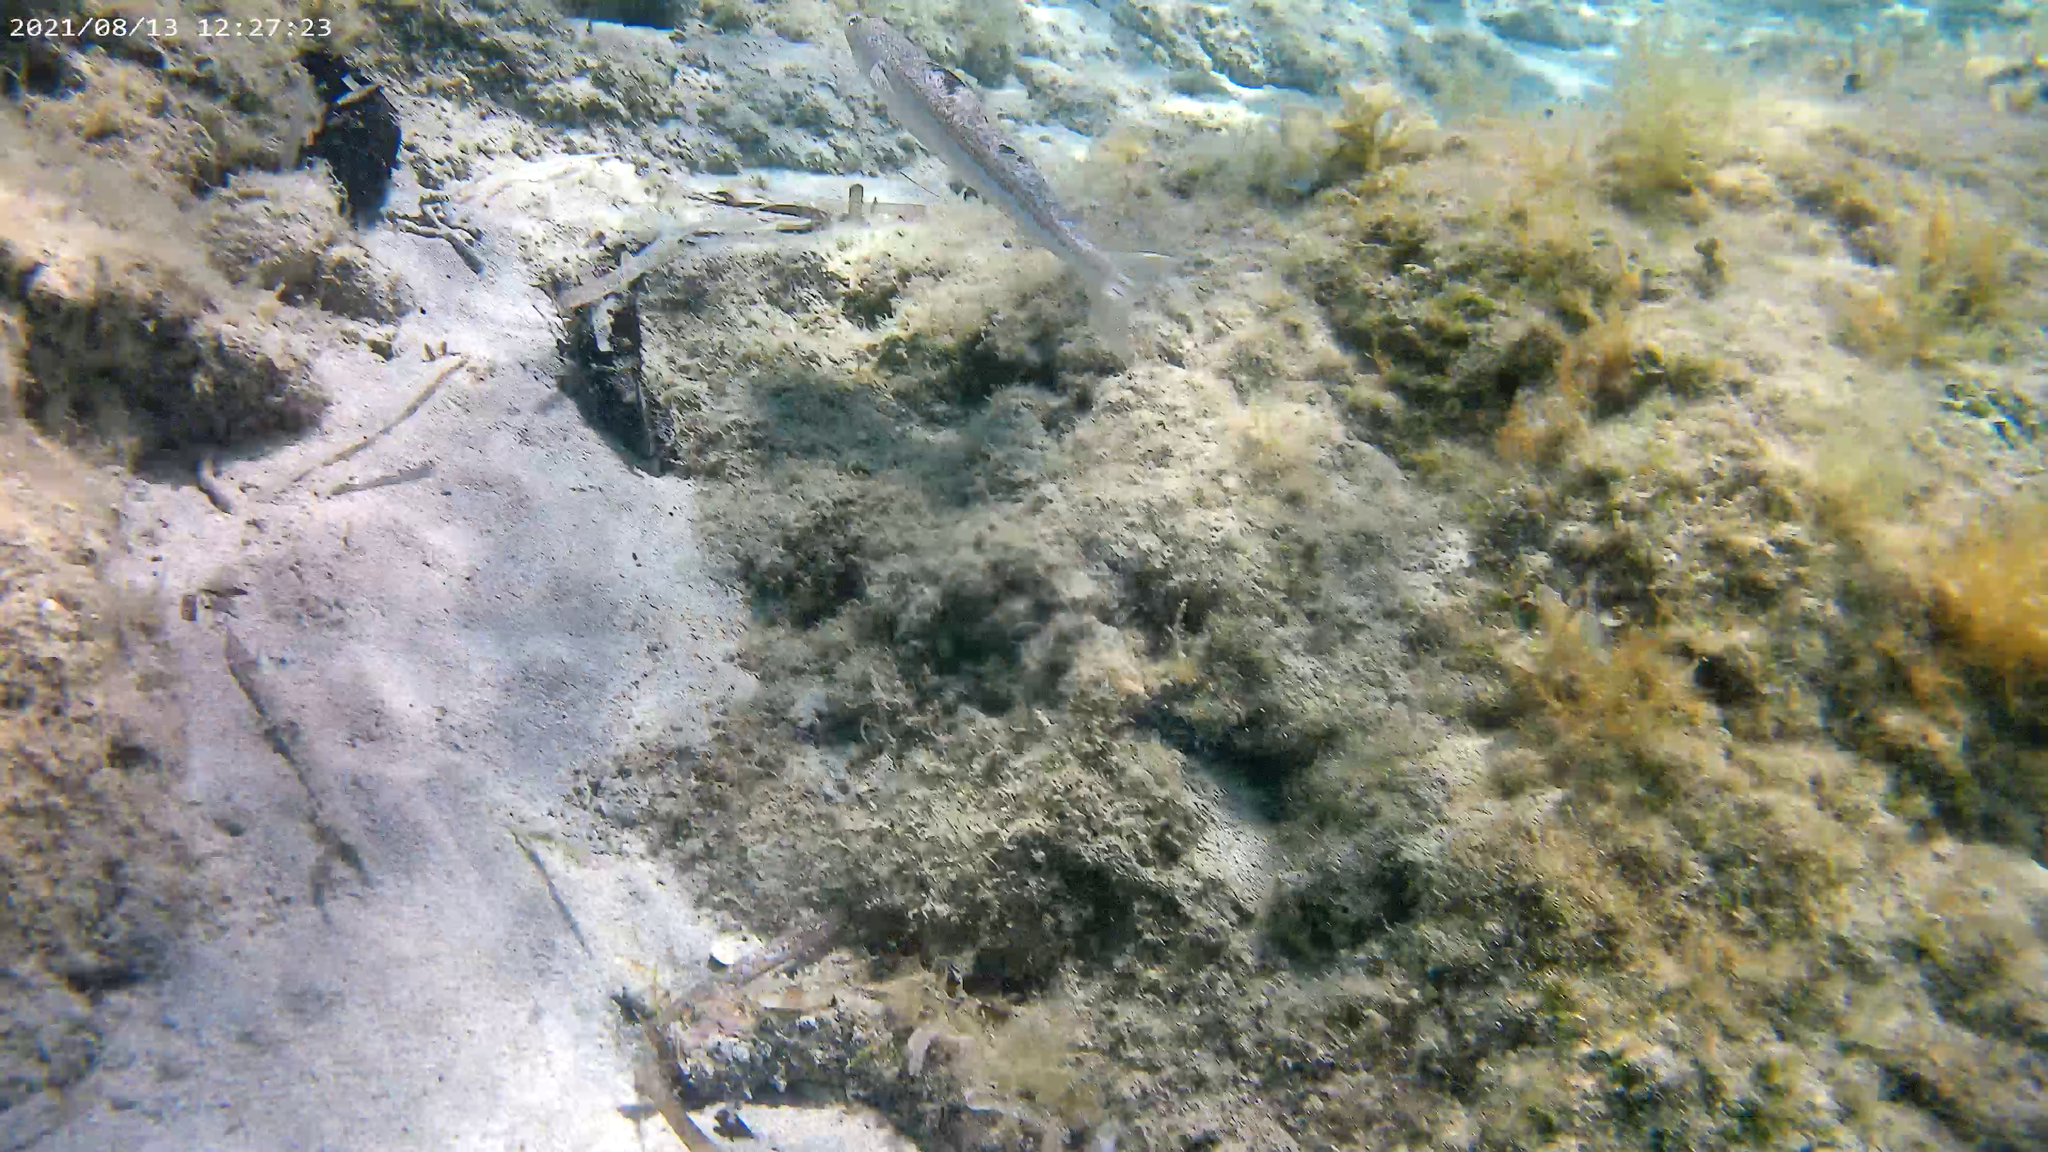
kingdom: Animalia
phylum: Chordata
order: Aulopiformes
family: Synodontidae
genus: Synodus
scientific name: Synodus saurus
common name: Atlantic lizardfish
